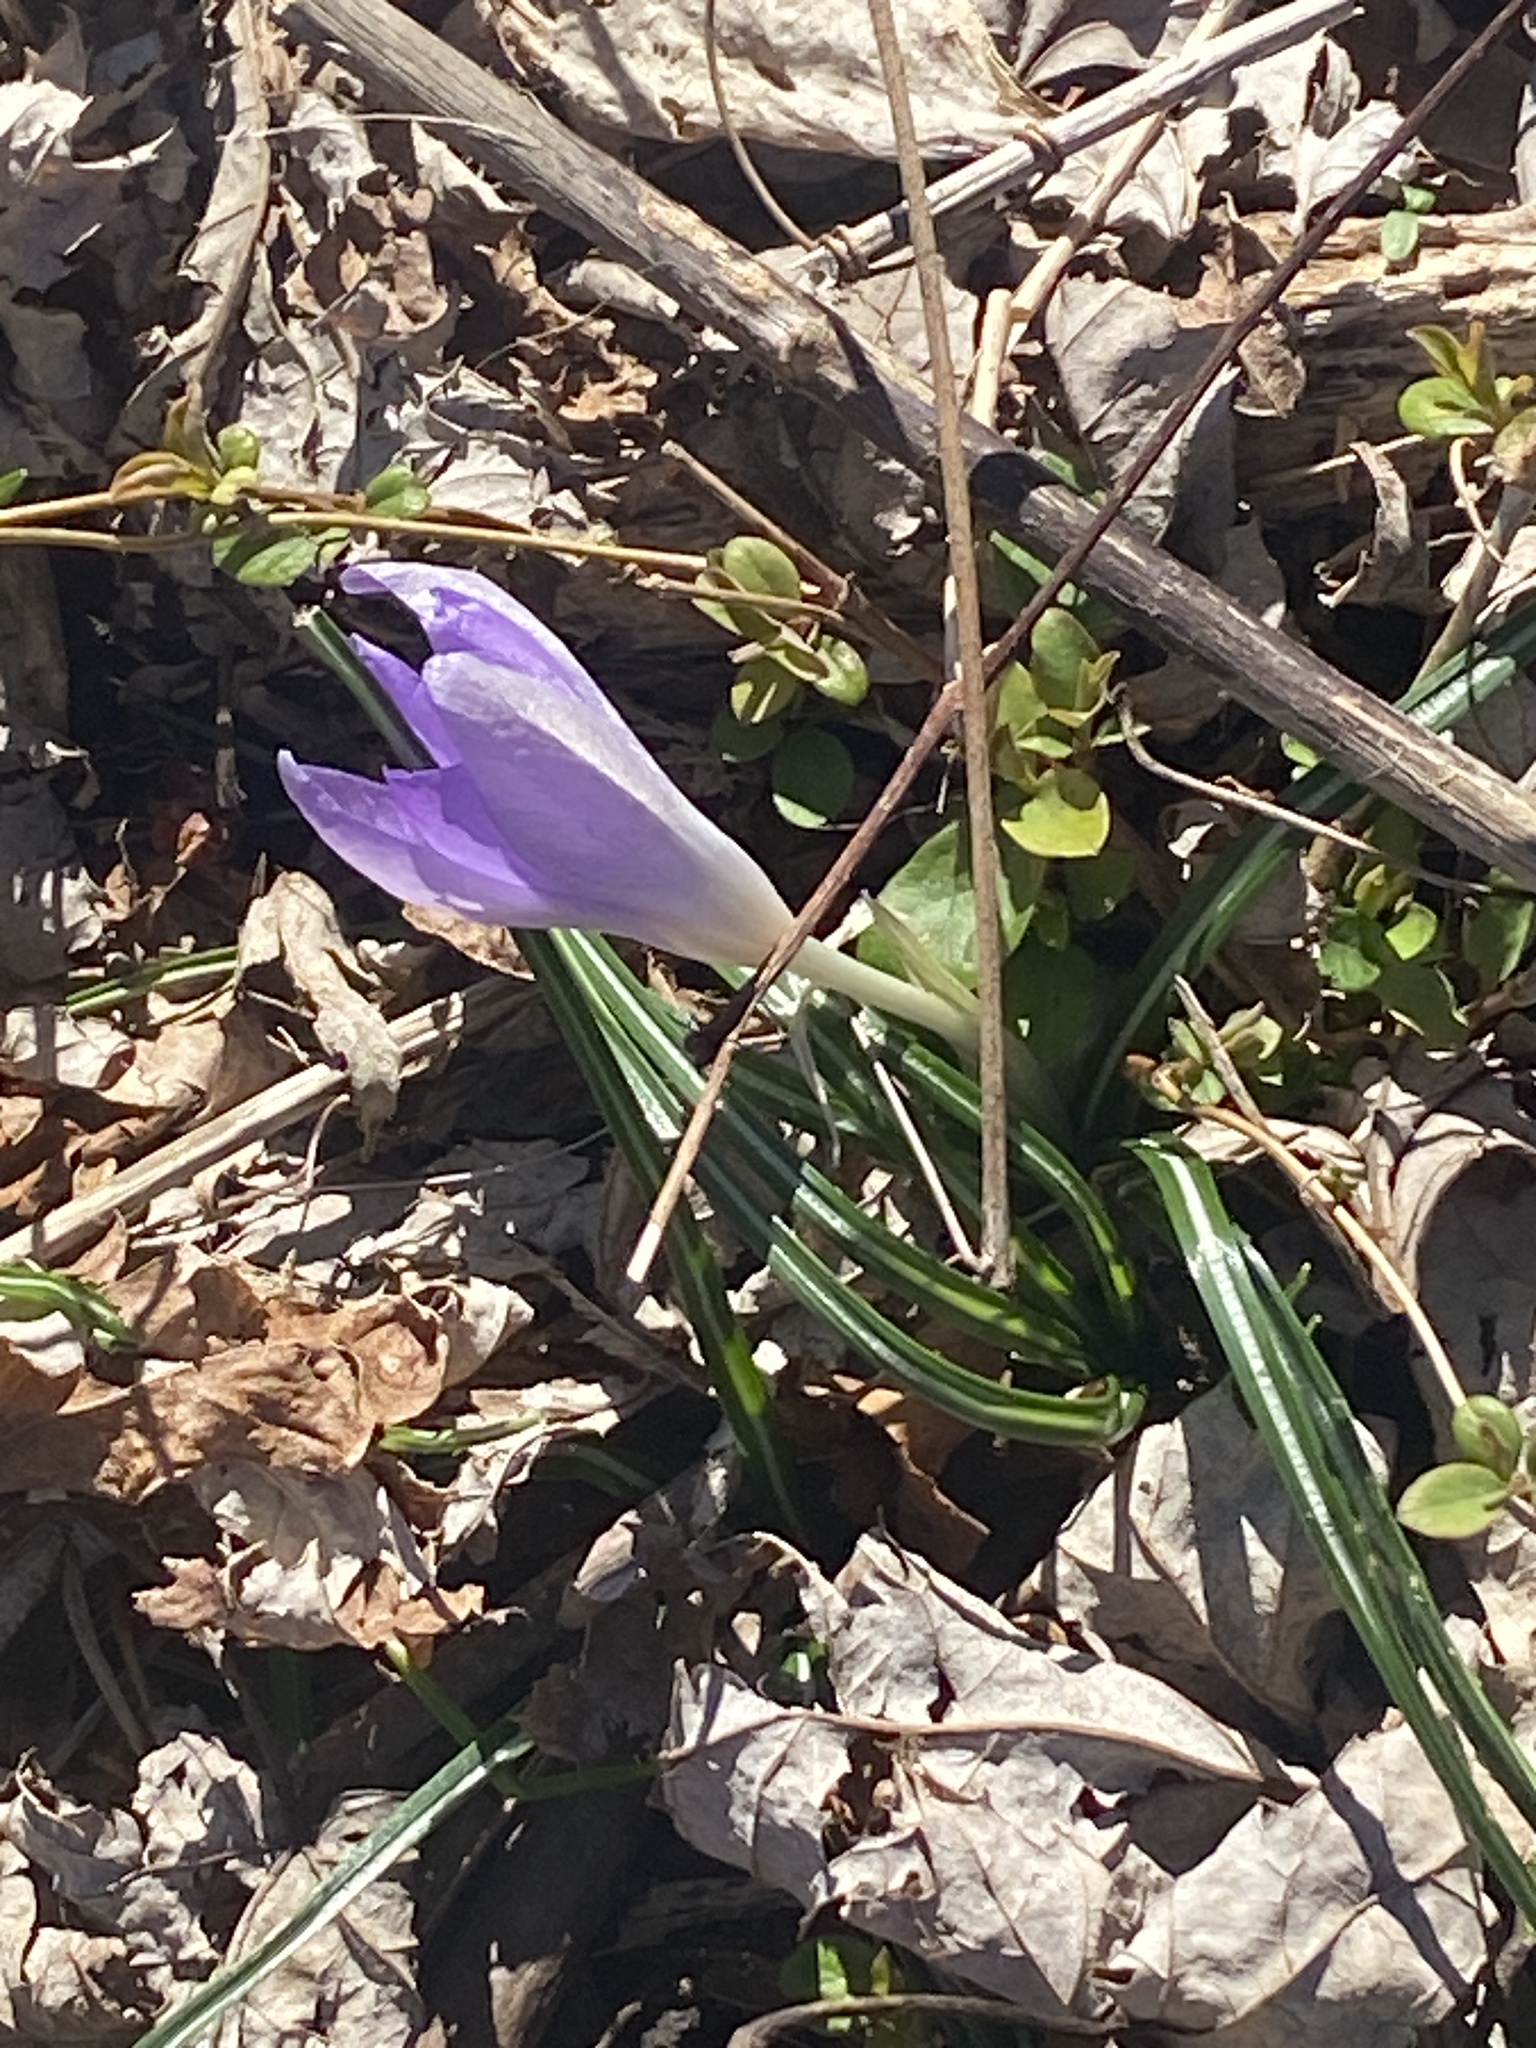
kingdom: Plantae
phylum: Tracheophyta
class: Liliopsida
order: Asparagales
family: Iridaceae
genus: Crocus
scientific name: Crocus tommasinianus
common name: Early crocus
